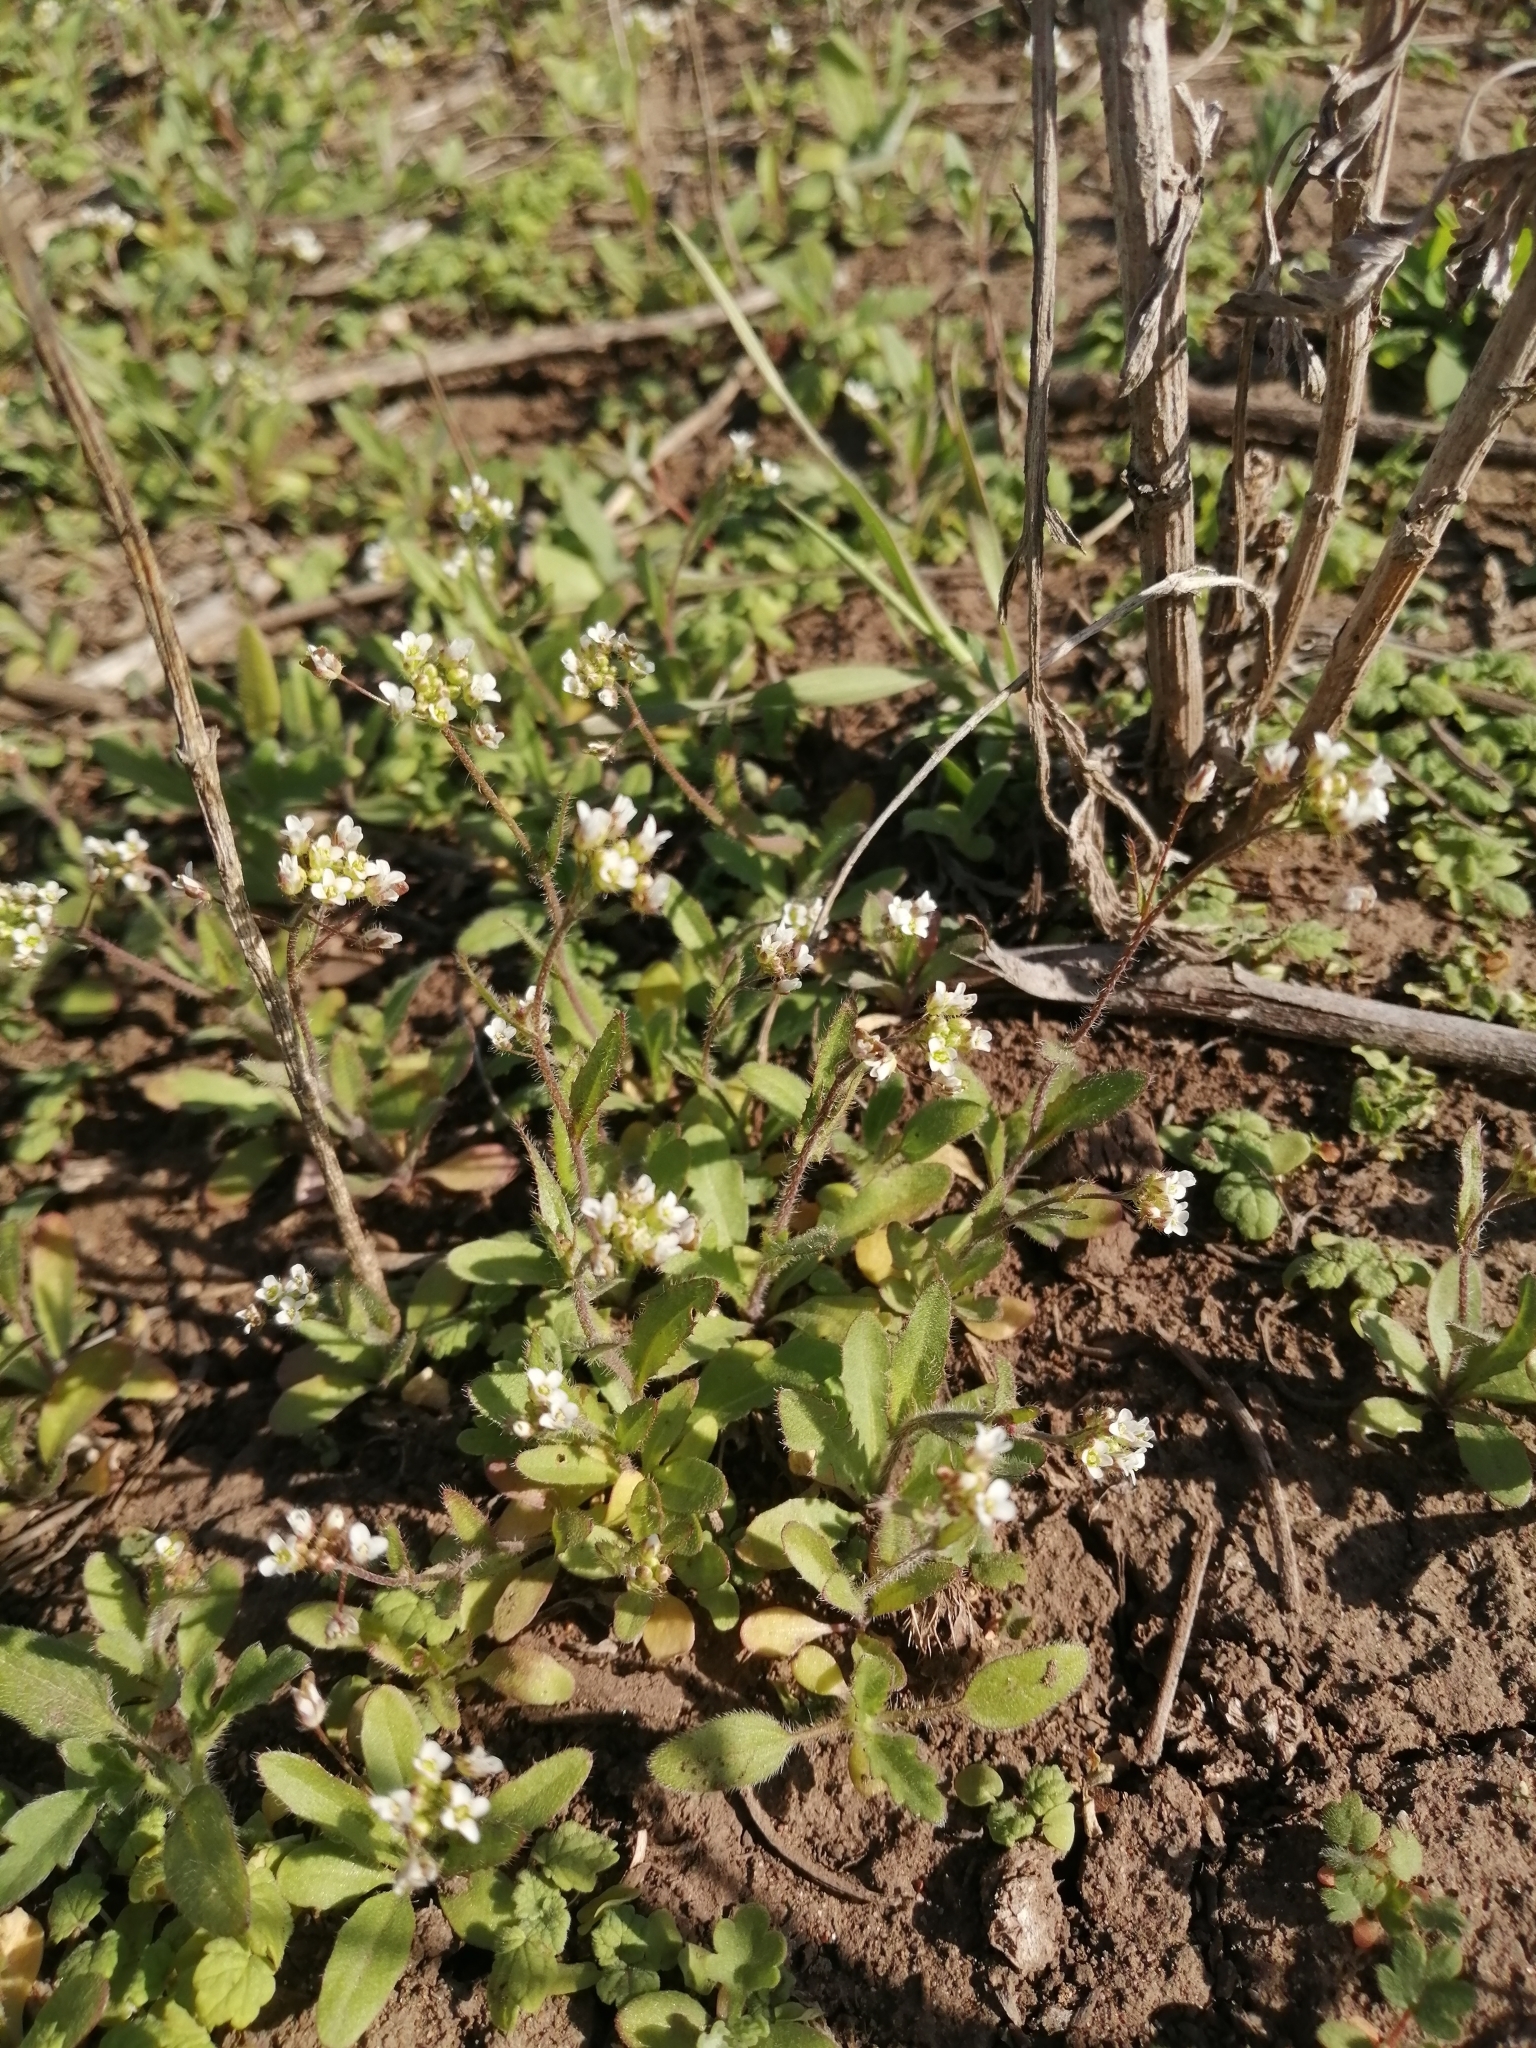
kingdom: Plantae
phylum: Tracheophyta
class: Magnoliopsida
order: Brassicales
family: Brassicaceae
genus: Capsella
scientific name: Capsella bursa-pastoris
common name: Shepherd's purse
